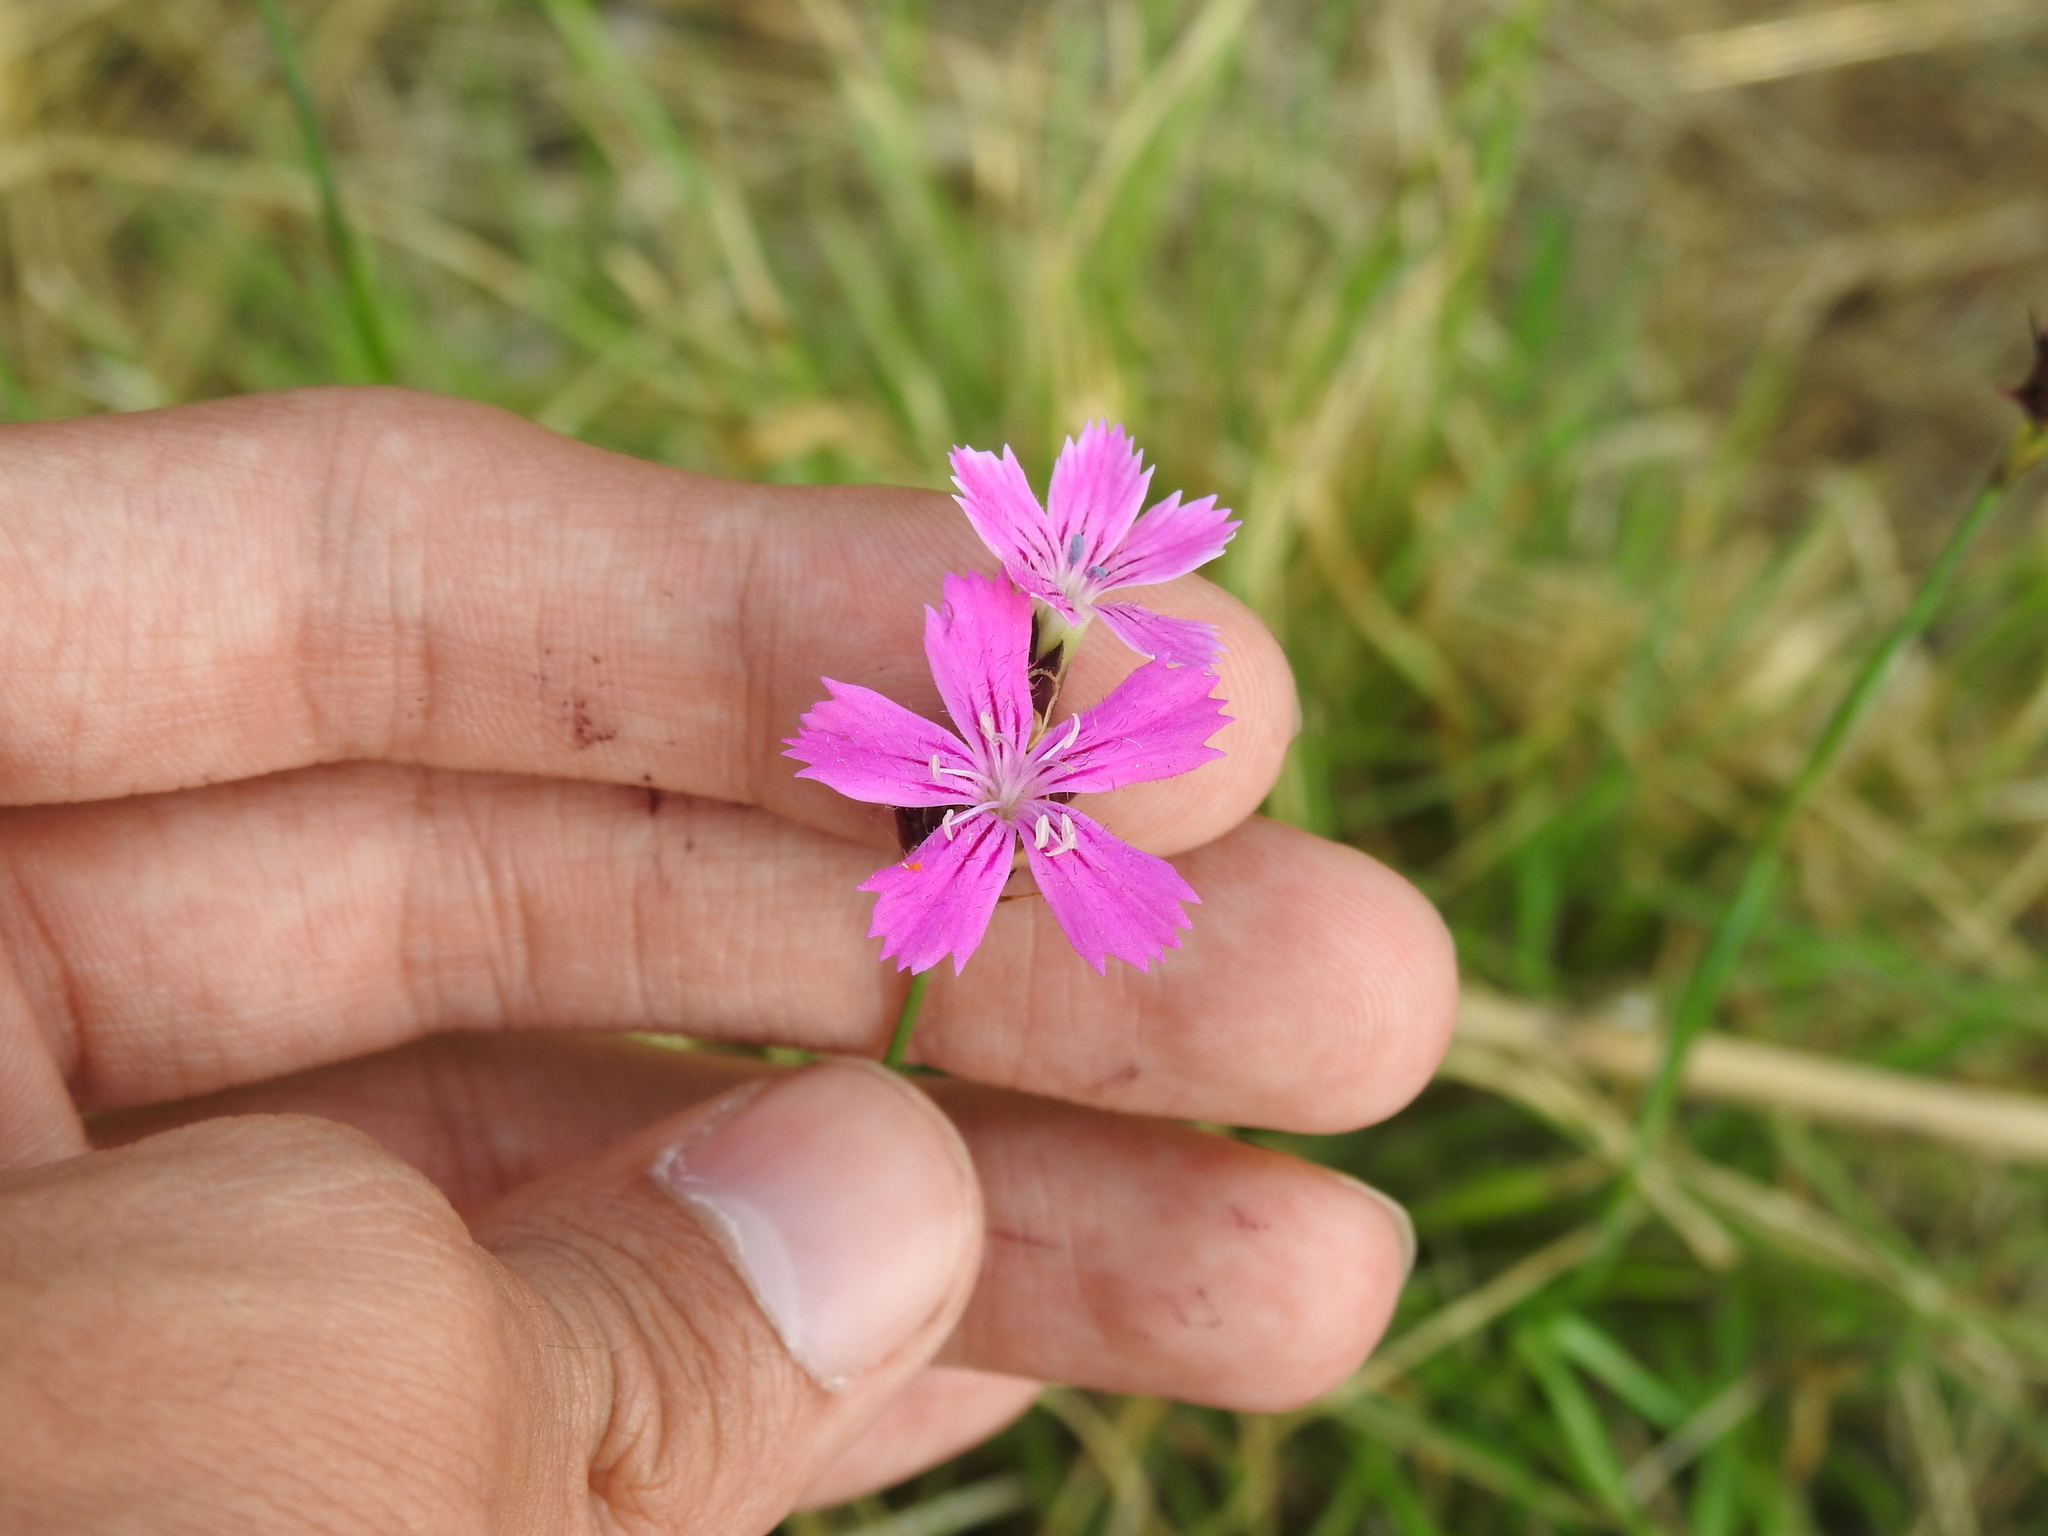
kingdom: Plantae
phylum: Tracheophyta
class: Magnoliopsida
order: Caryophyllales
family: Caryophyllaceae
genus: Dianthus
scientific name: Dianthus carthusianorum
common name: Carthusian pink
